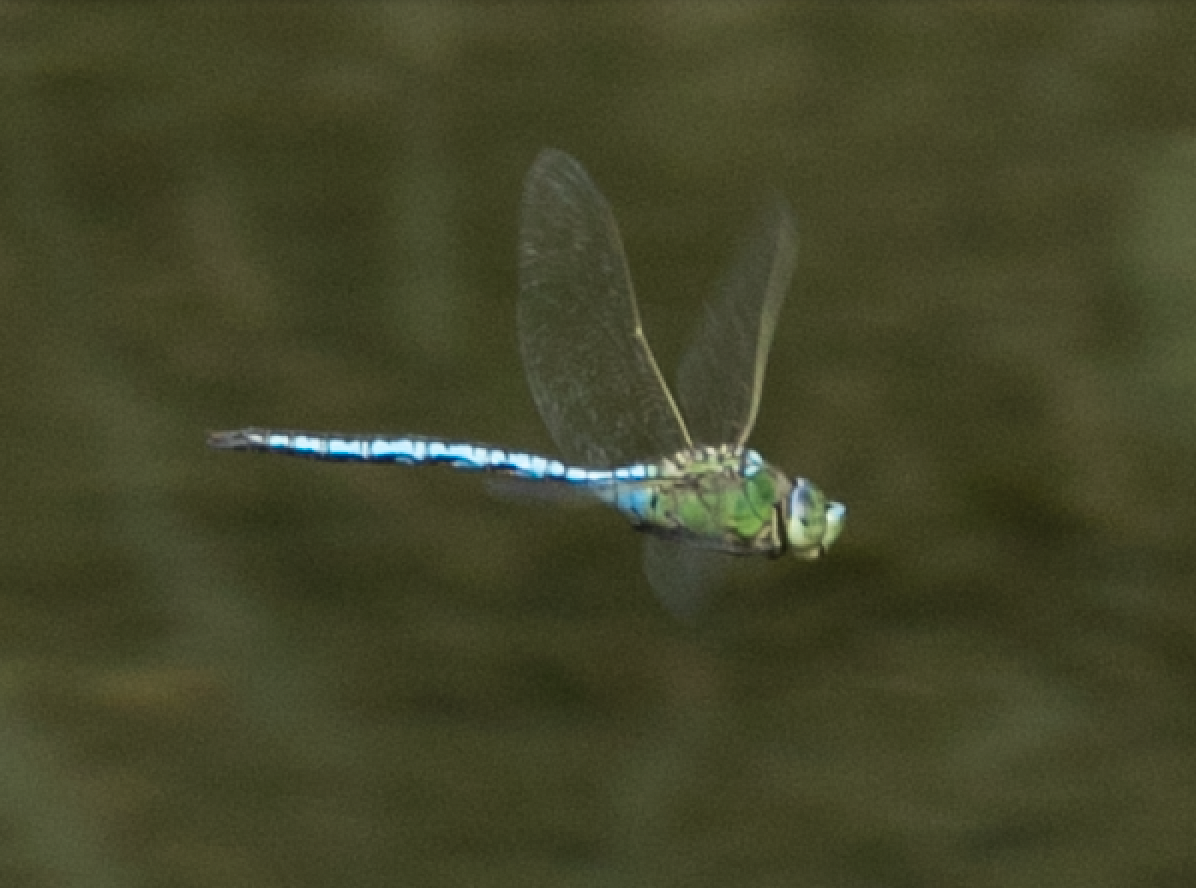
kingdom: Animalia
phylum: Arthropoda
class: Insecta
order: Odonata
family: Aeshnidae
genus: Anax
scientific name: Anax imperator
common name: Emperor dragonfly
